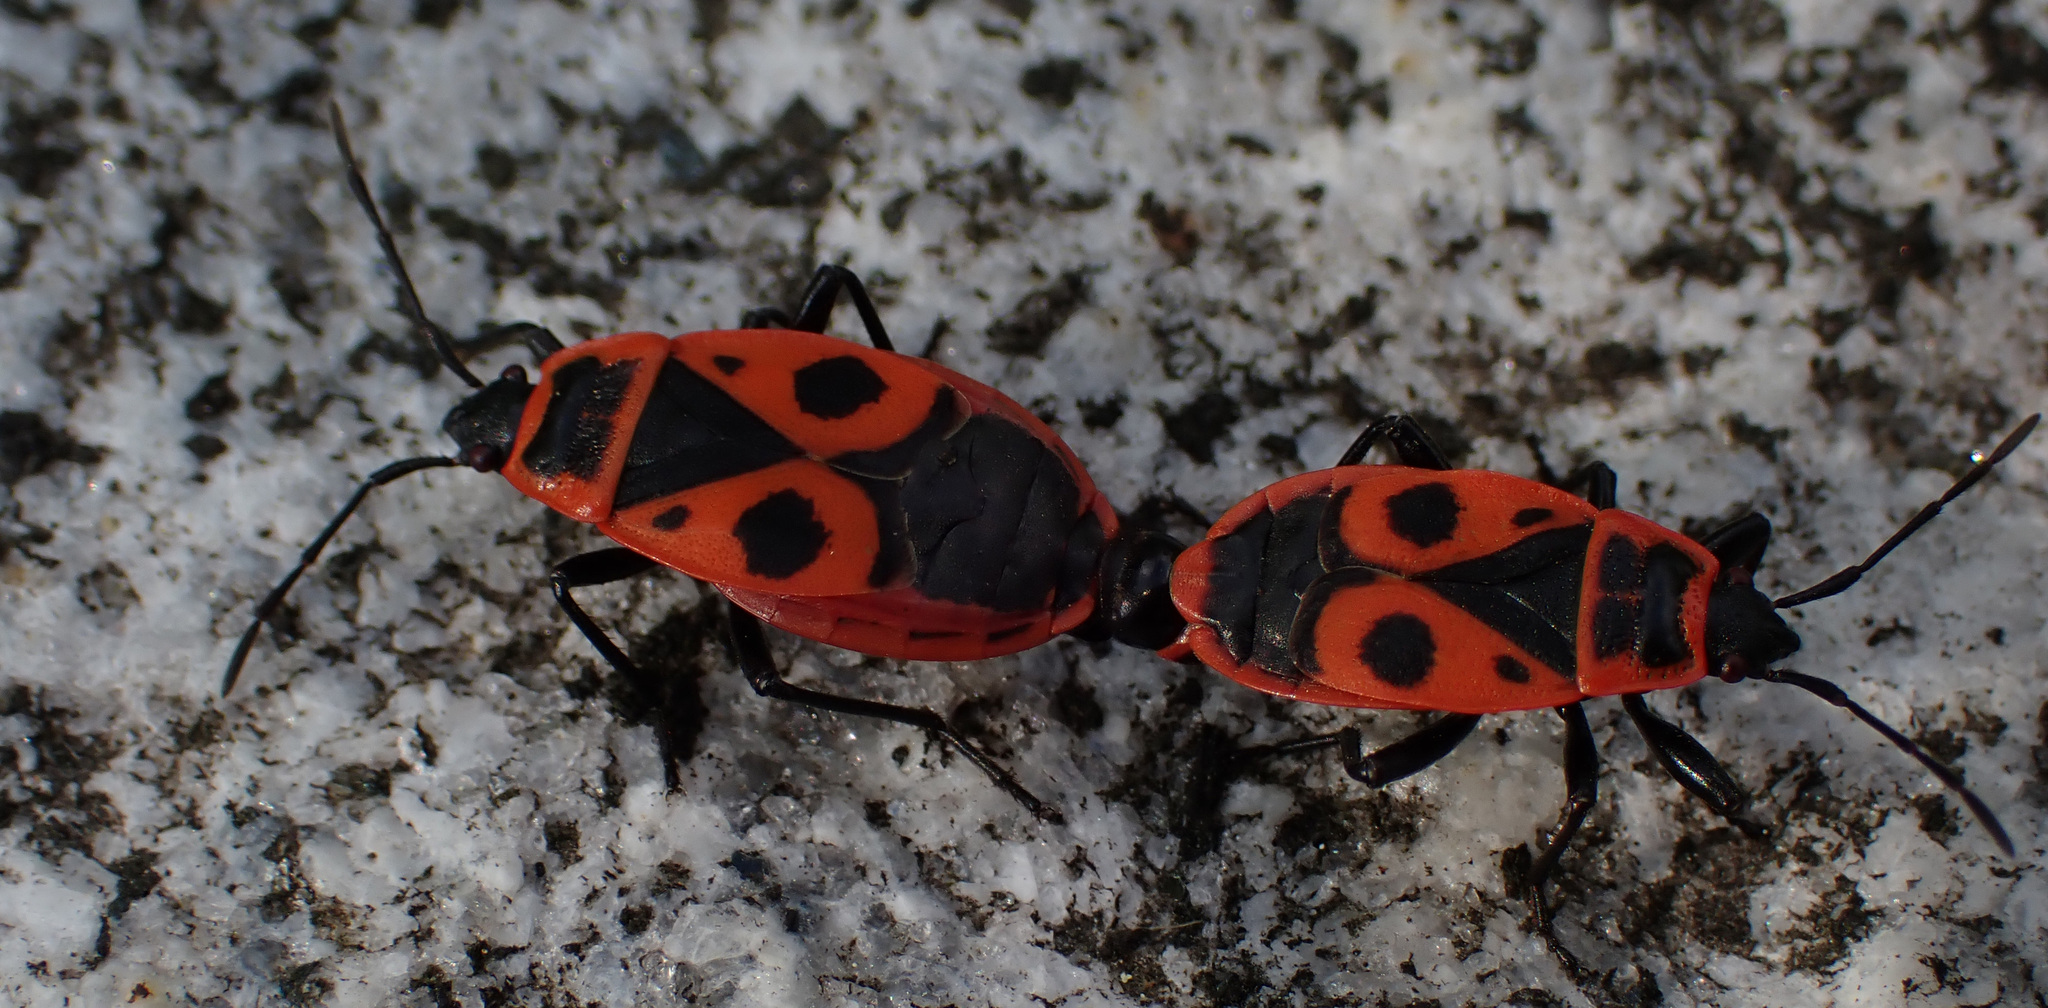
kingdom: Animalia
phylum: Arthropoda
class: Insecta
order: Hemiptera
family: Pyrrhocoridae
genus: Pyrrhocoris
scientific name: Pyrrhocoris apterus
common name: Firebug
